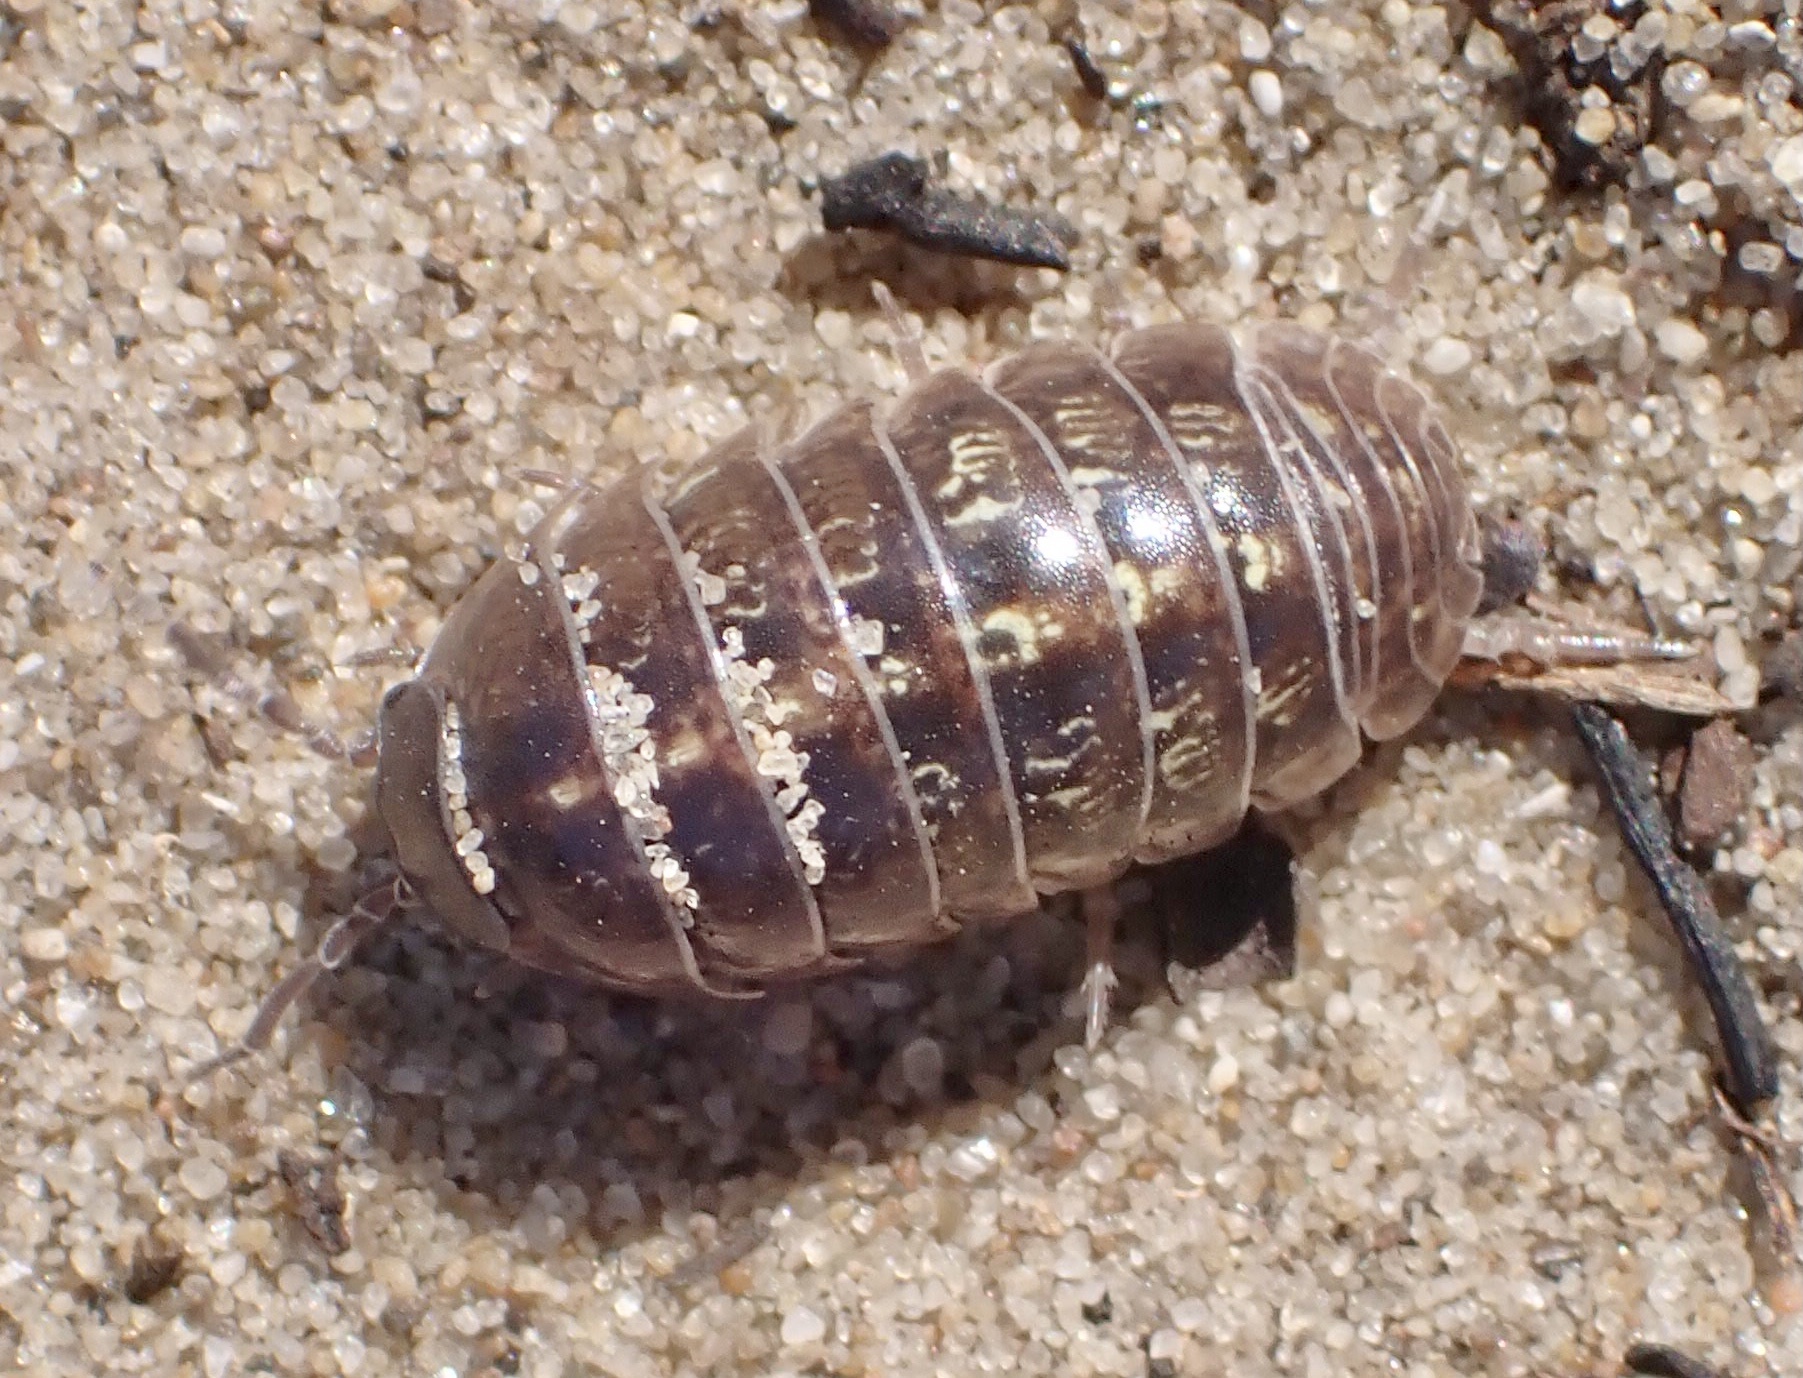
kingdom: Animalia
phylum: Arthropoda
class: Malacostraca
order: Isopoda
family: Armadillidiidae
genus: Armadillidium
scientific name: Armadillidium vulgare
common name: Common pill woodlouse
